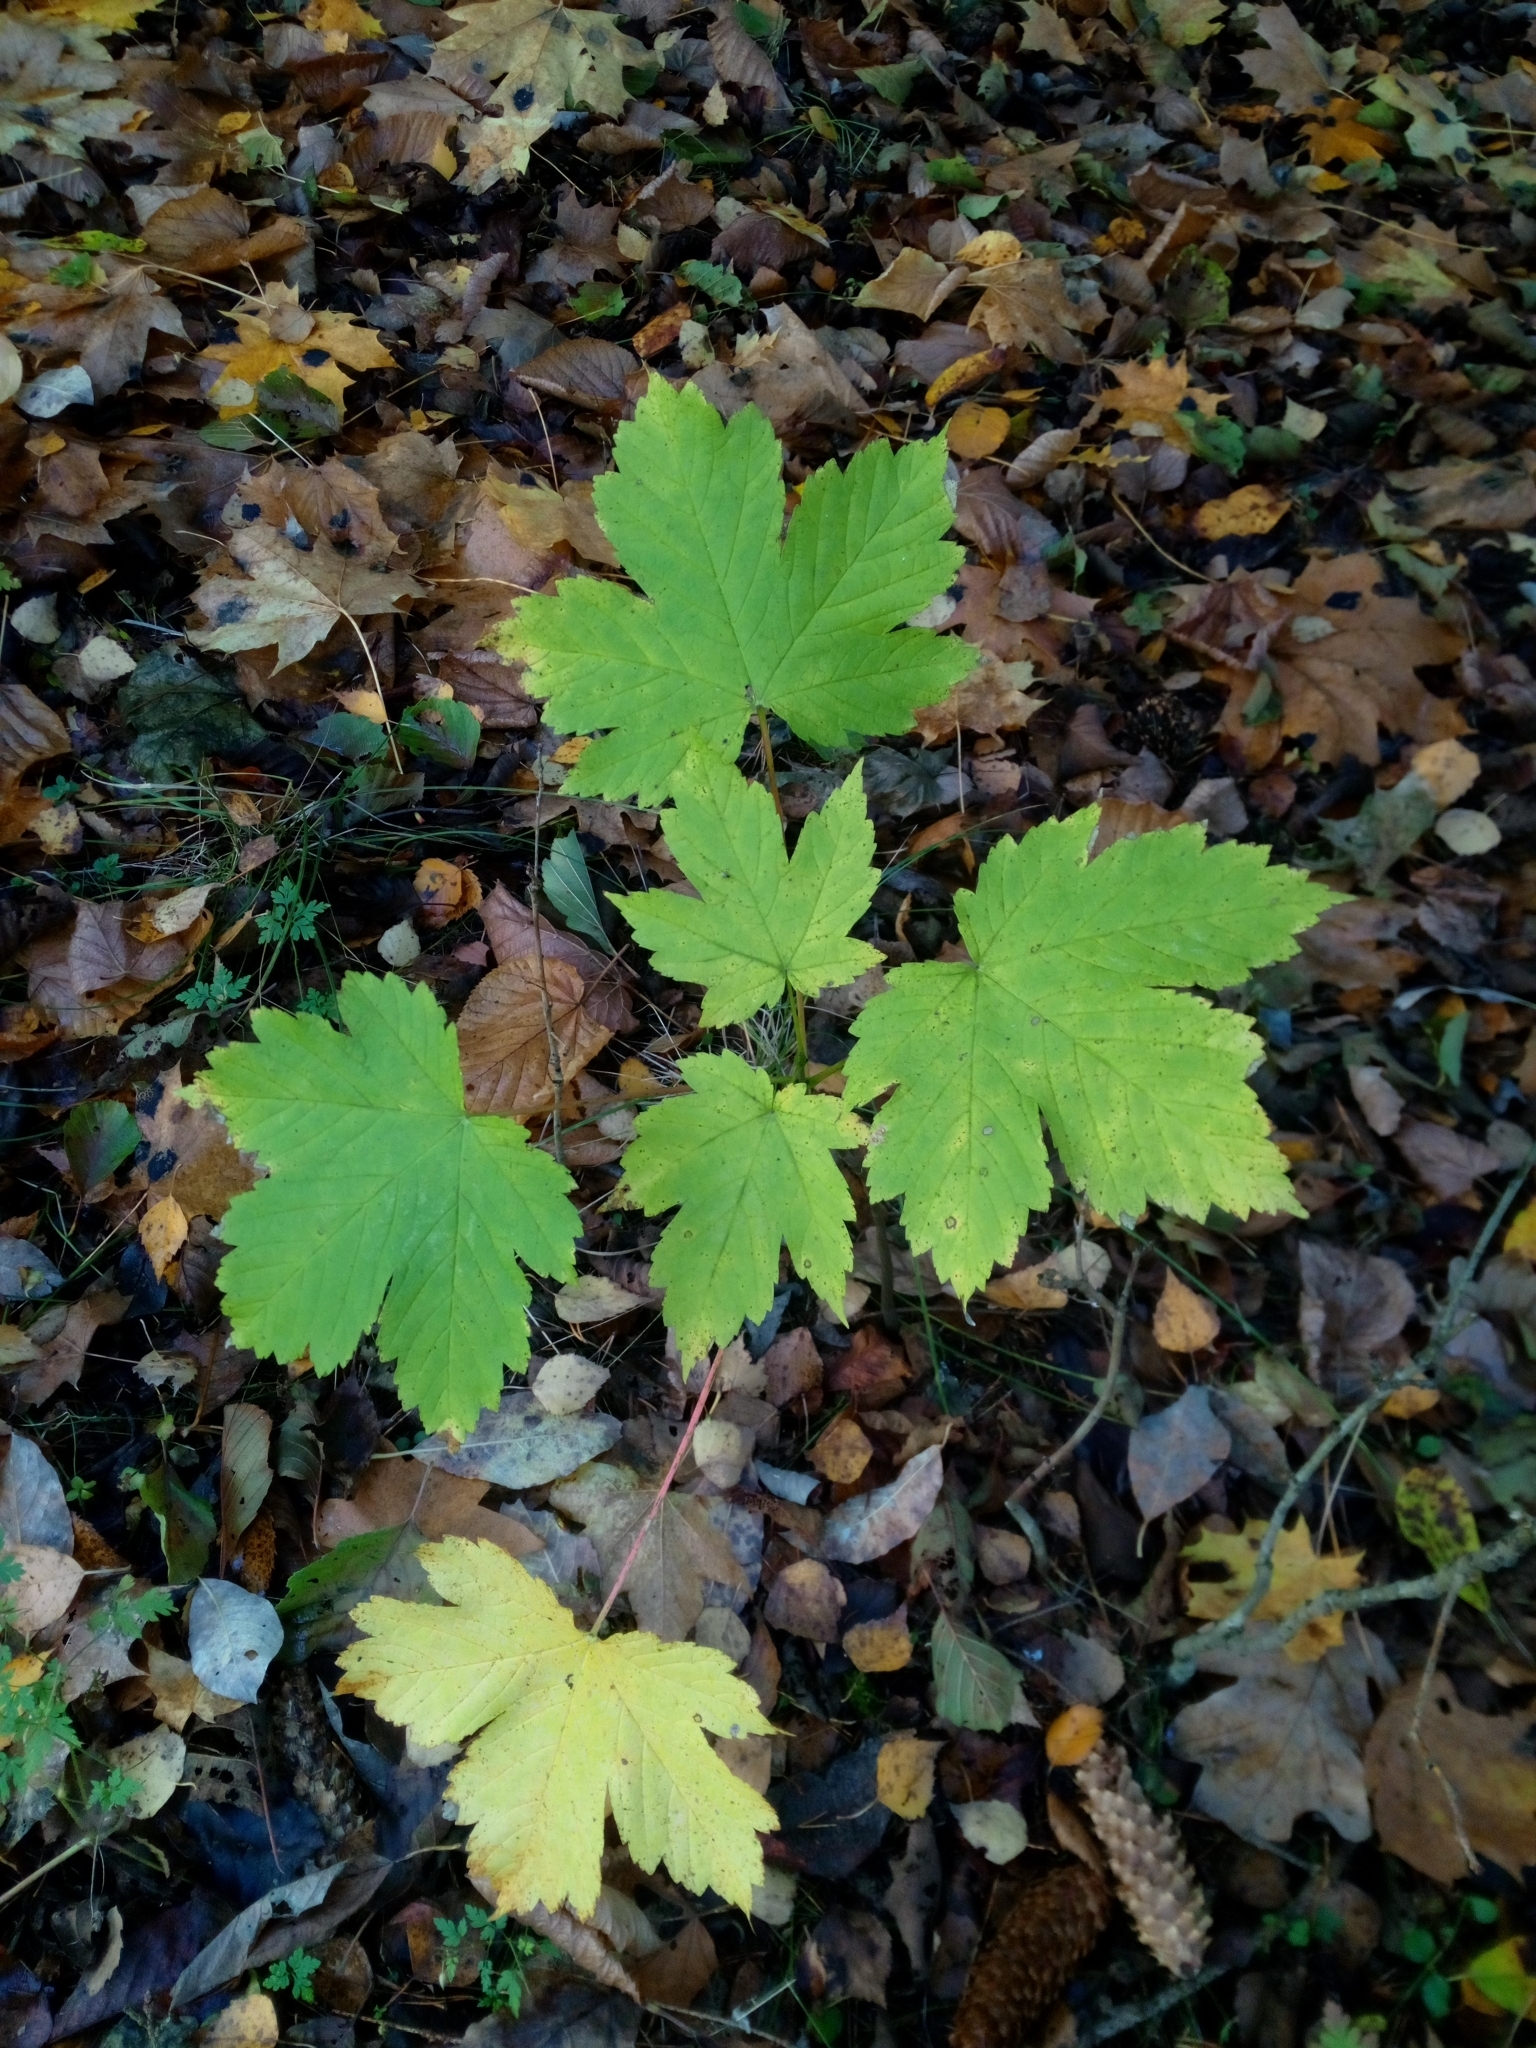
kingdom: Plantae
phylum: Tracheophyta
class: Magnoliopsida
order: Sapindales
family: Sapindaceae
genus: Acer
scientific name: Acer pseudoplatanus
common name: Sycamore
